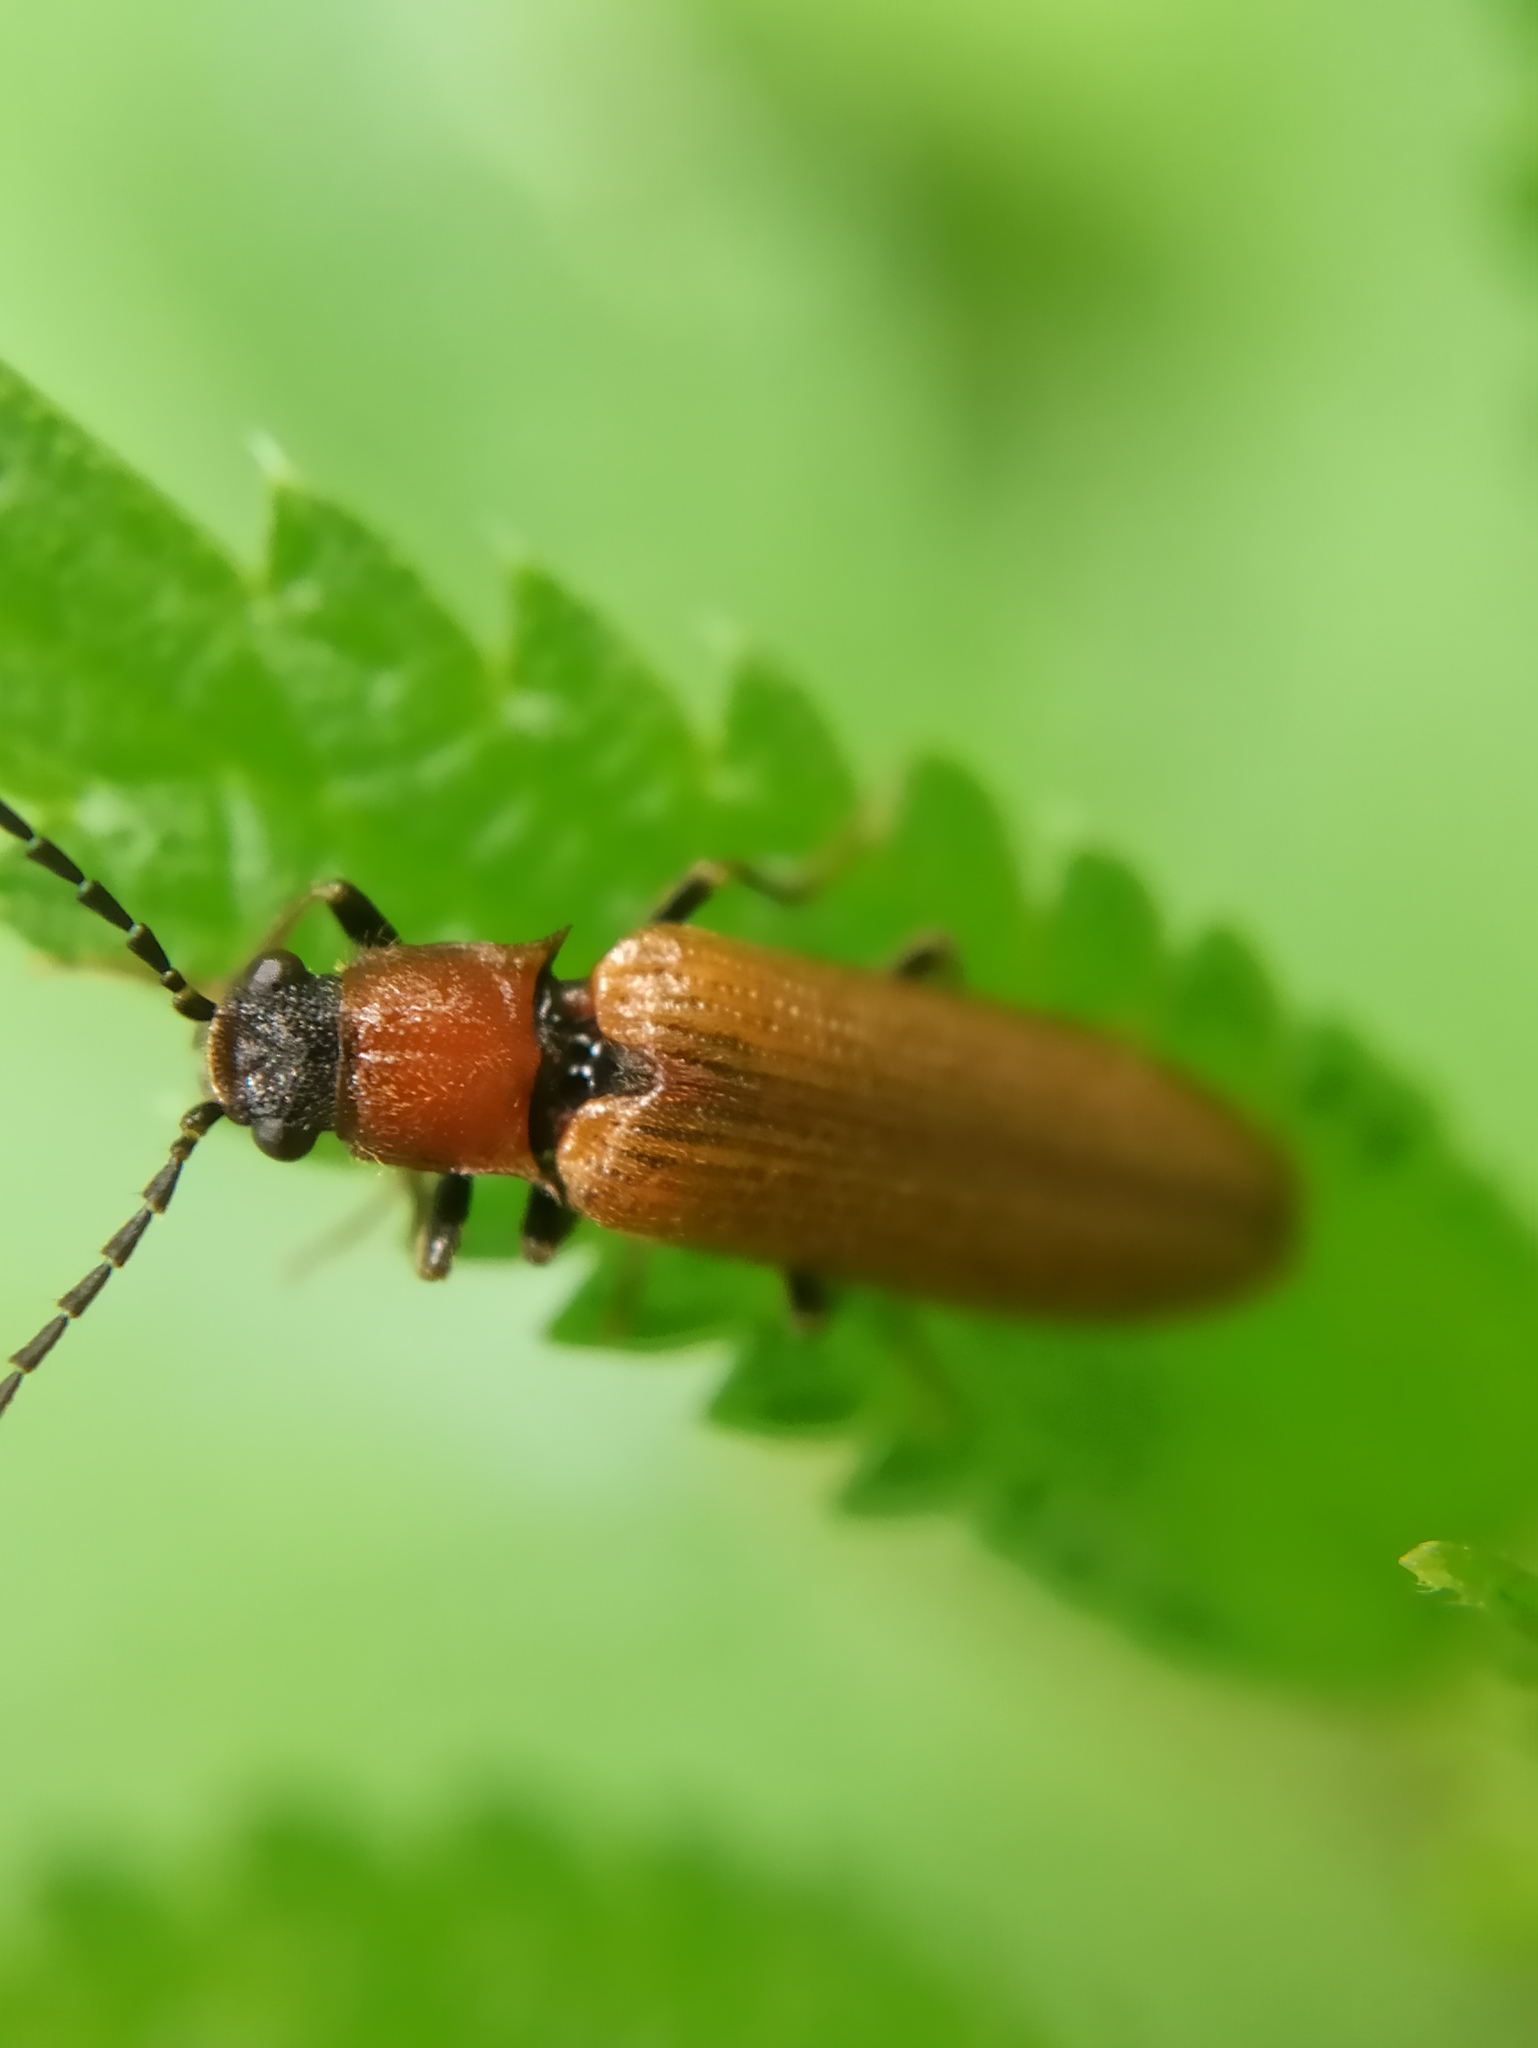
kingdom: Animalia
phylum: Arthropoda
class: Insecta
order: Coleoptera
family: Elateridae
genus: Denticollis
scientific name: Denticollis linearis
